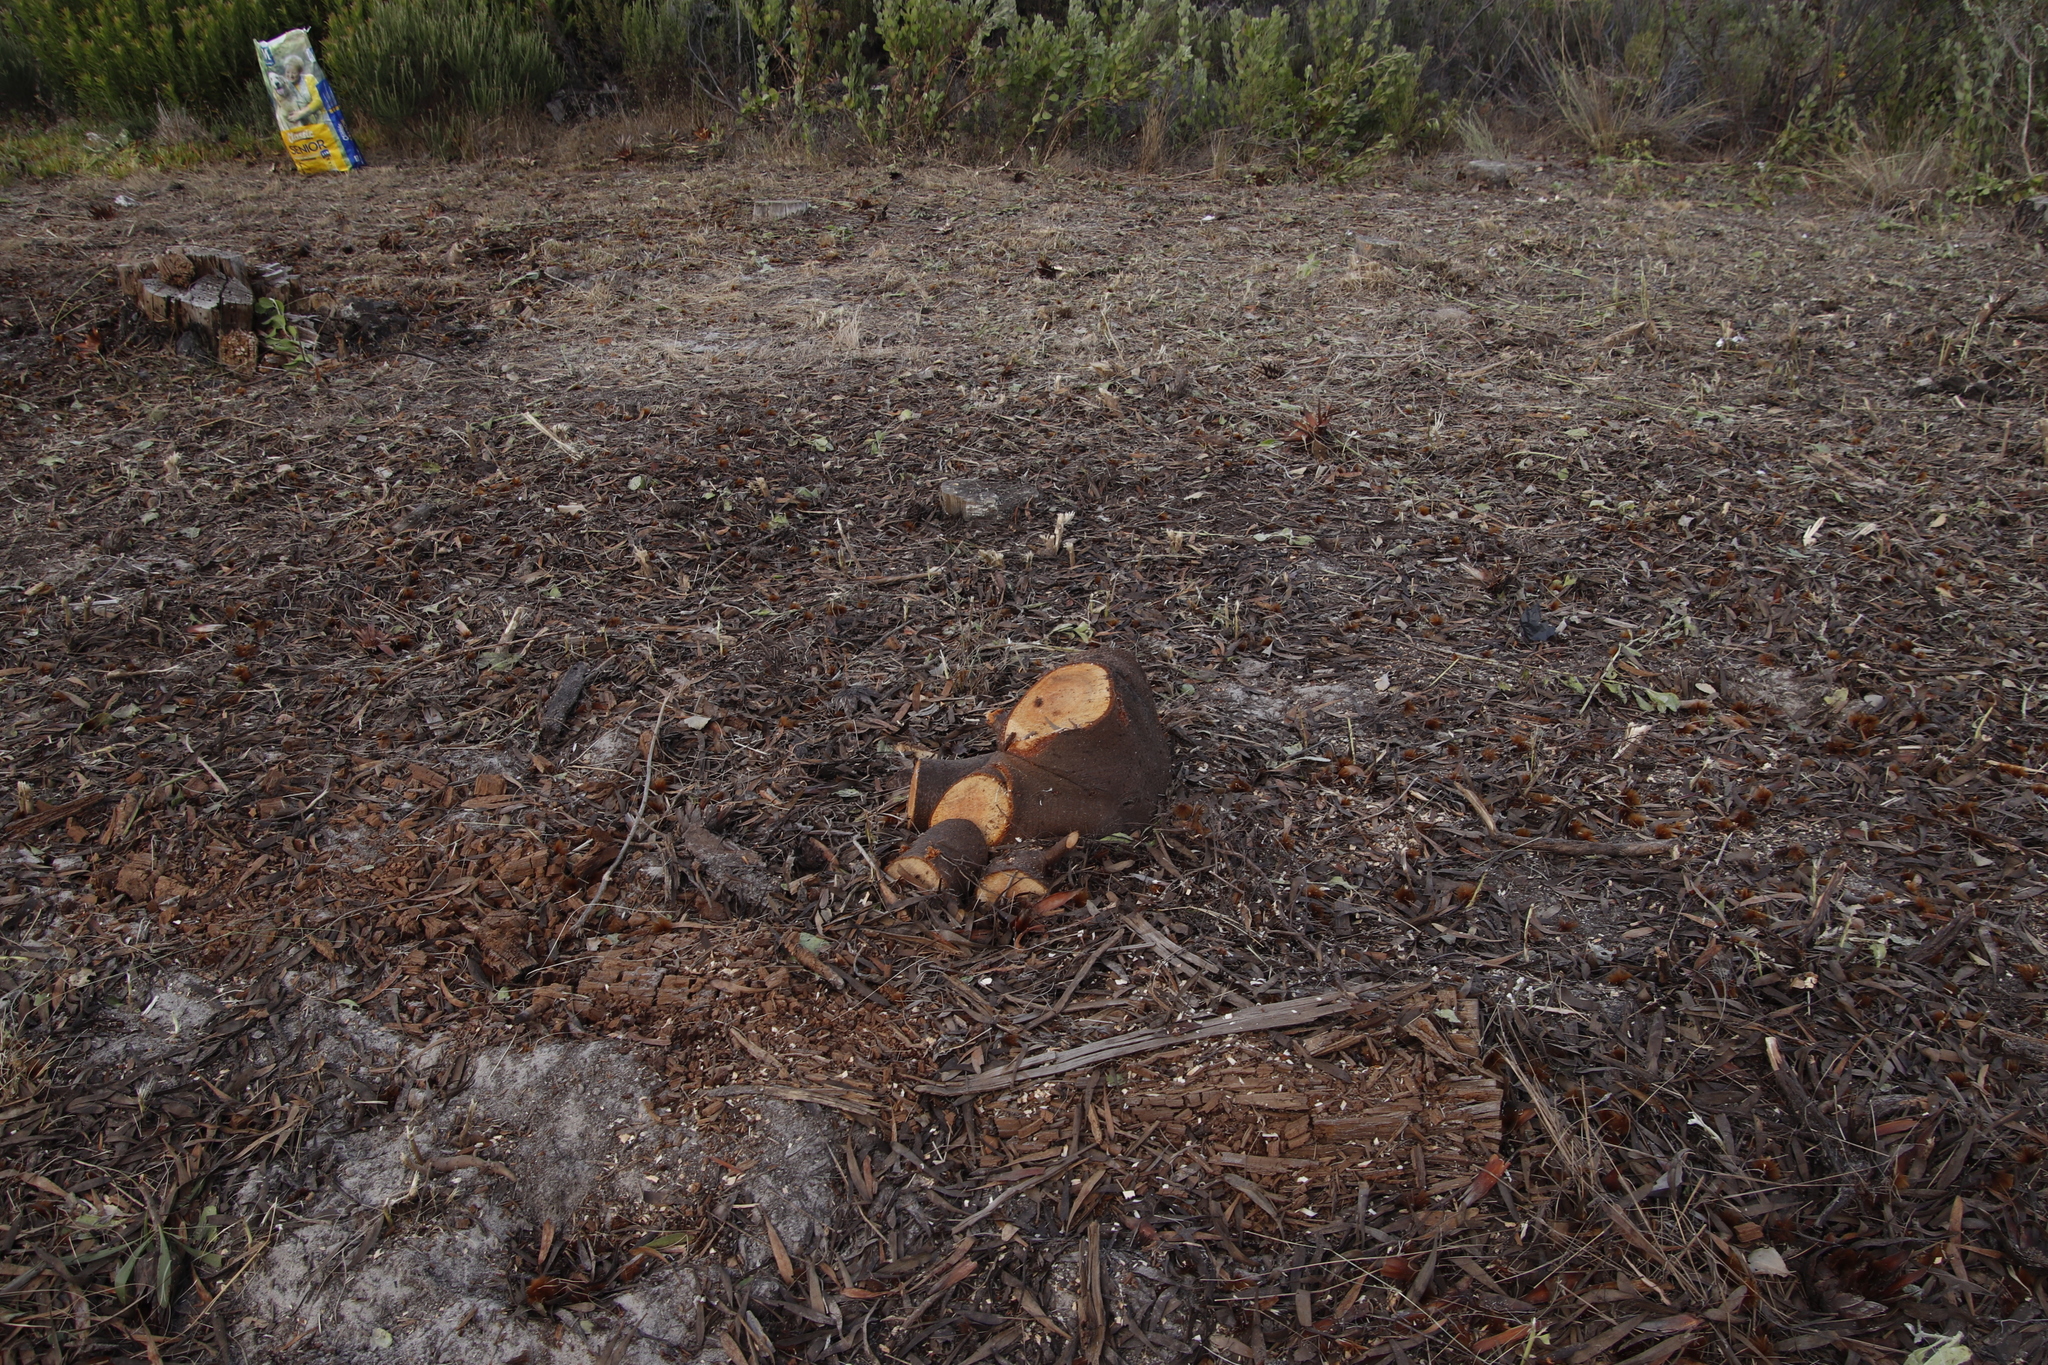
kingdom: Plantae
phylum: Tracheophyta
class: Magnoliopsida
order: Proteales
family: Proteaceae
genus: Protea
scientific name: Protea repens
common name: Sugarbush
